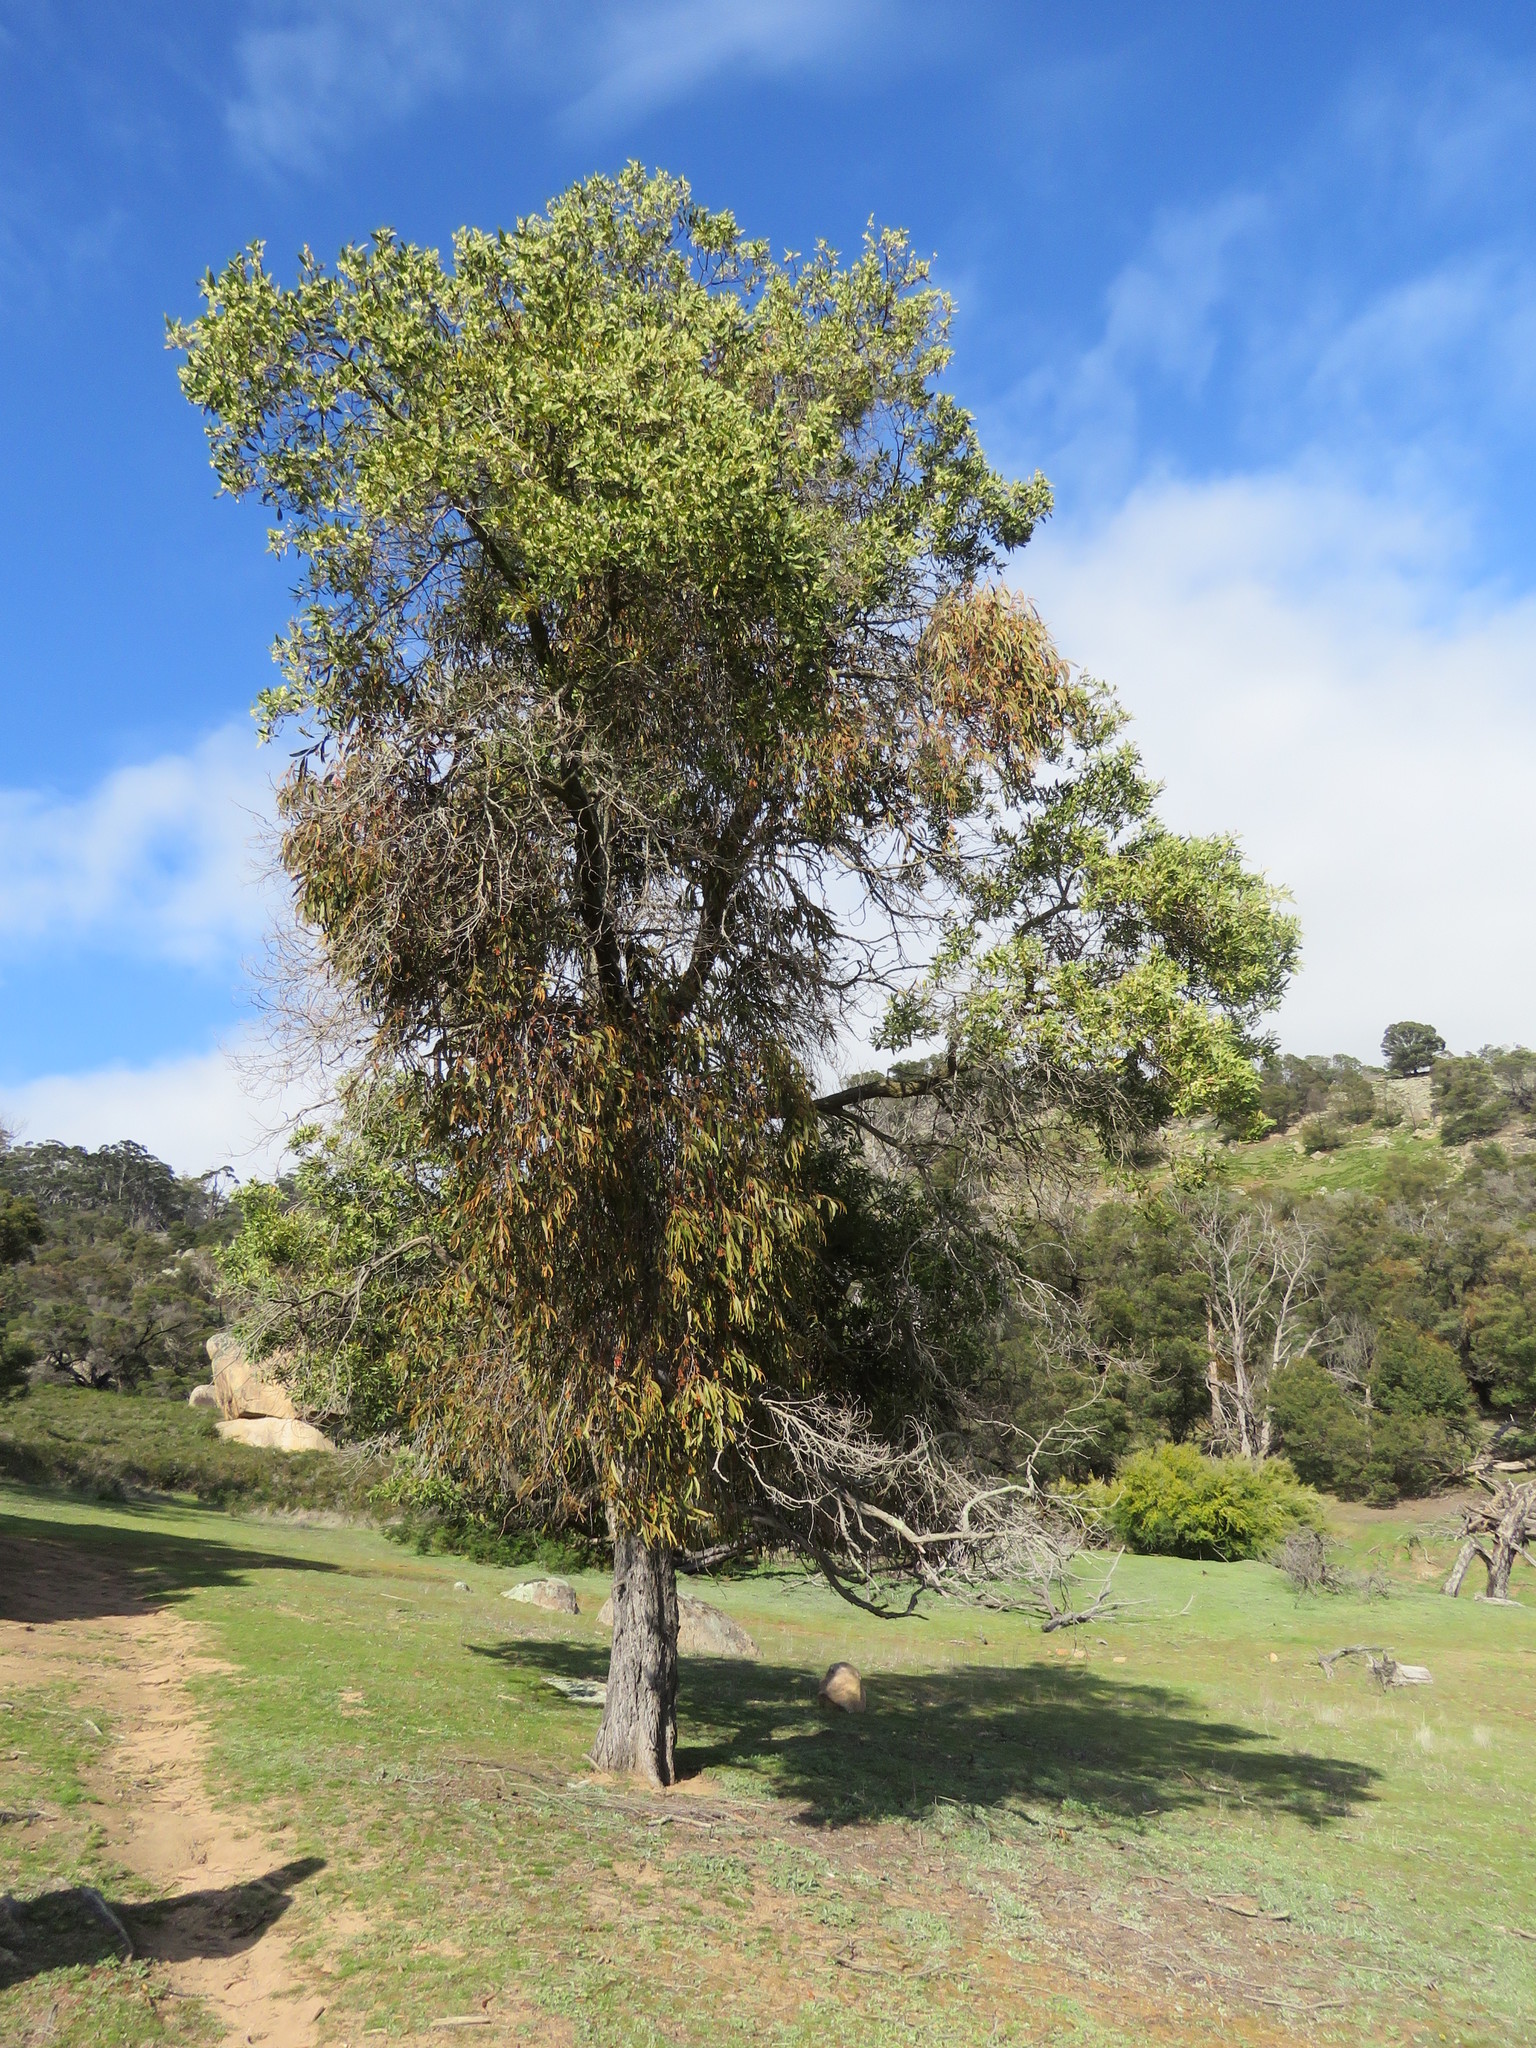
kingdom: Plantae
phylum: Tracheophyta
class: Magnoliopsida
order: Santalales
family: Loranthaceae
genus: Amyema
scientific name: Amyema pendula
